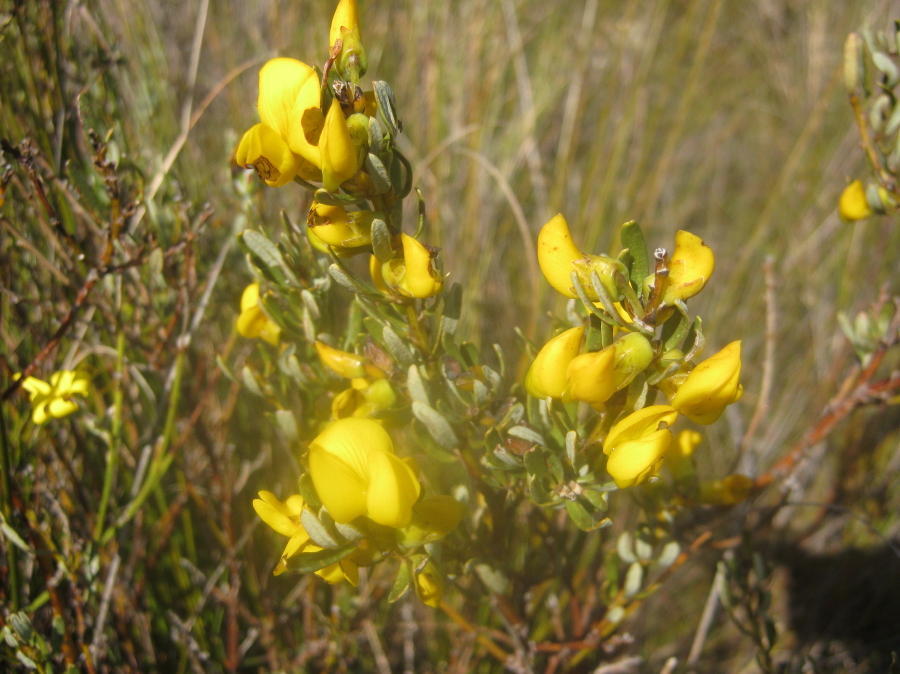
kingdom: Plantae
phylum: Tracheophyta
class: Magnoliopsida
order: Fabales
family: Fabaceae
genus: Cyclopia
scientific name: Cyclopia intermedia
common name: Mountain tea
